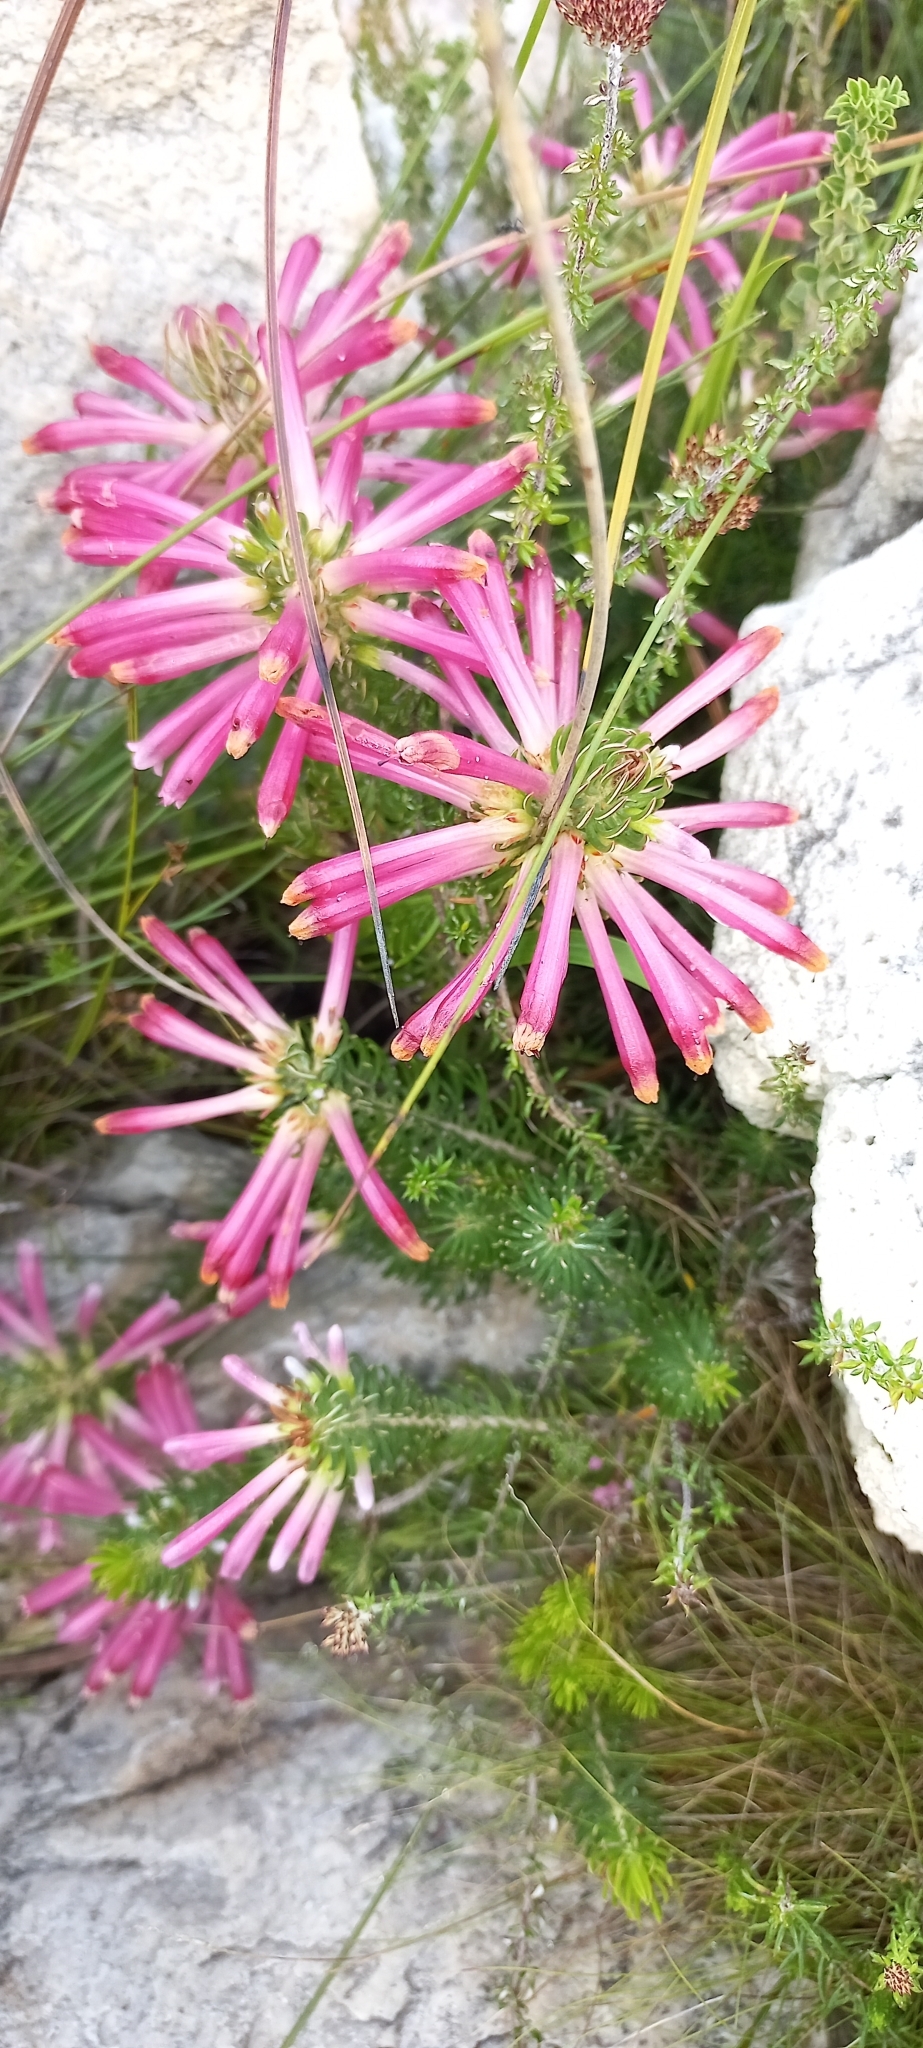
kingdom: Plantae
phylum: Tracheophyta
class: Magnoliopsida
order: Ericales
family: Ericaceae
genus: Erica
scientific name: Erica thomae
